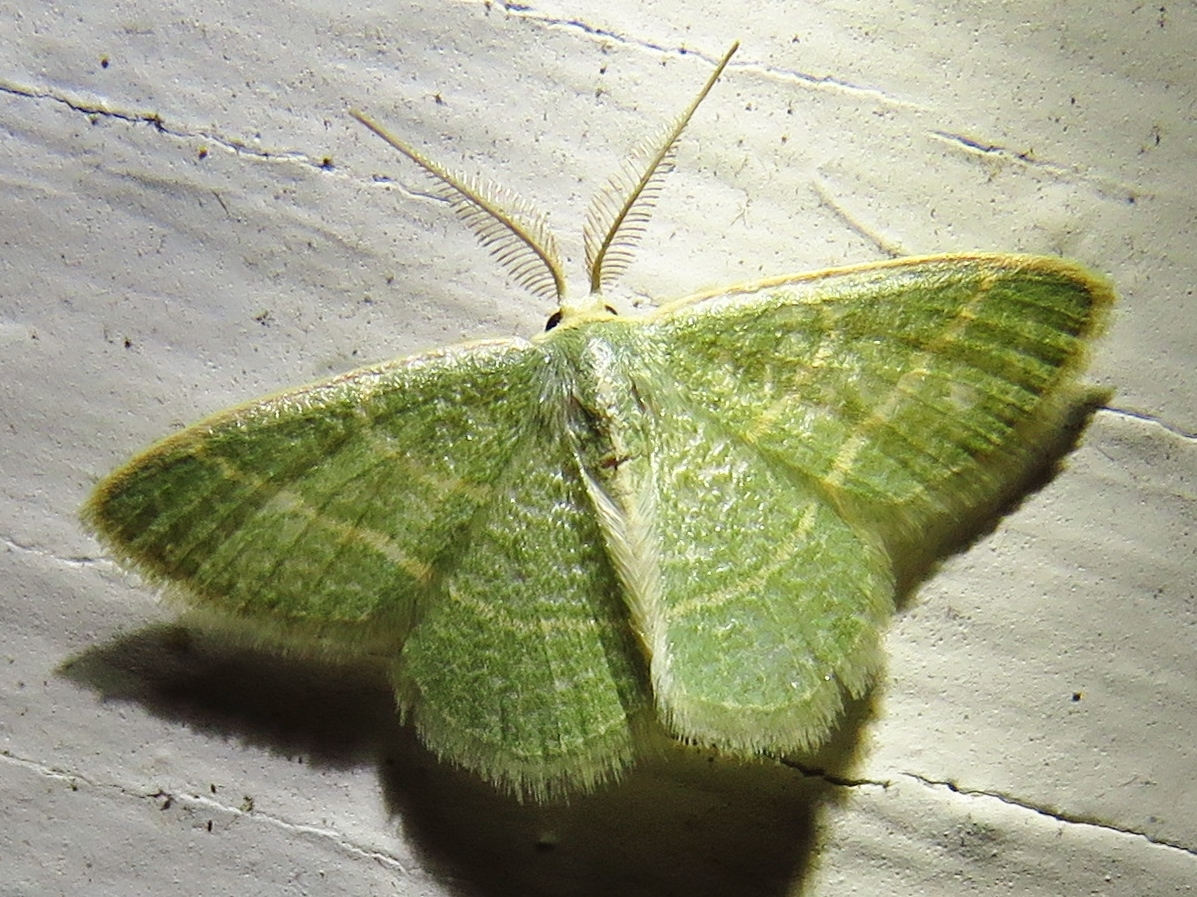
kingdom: Animalia
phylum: Arthropoda
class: Insecta
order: Lepidoptera
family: Geometridae
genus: Chlorochlamys
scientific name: Chlorochlamys chloroleucaria
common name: Blackberry looper
